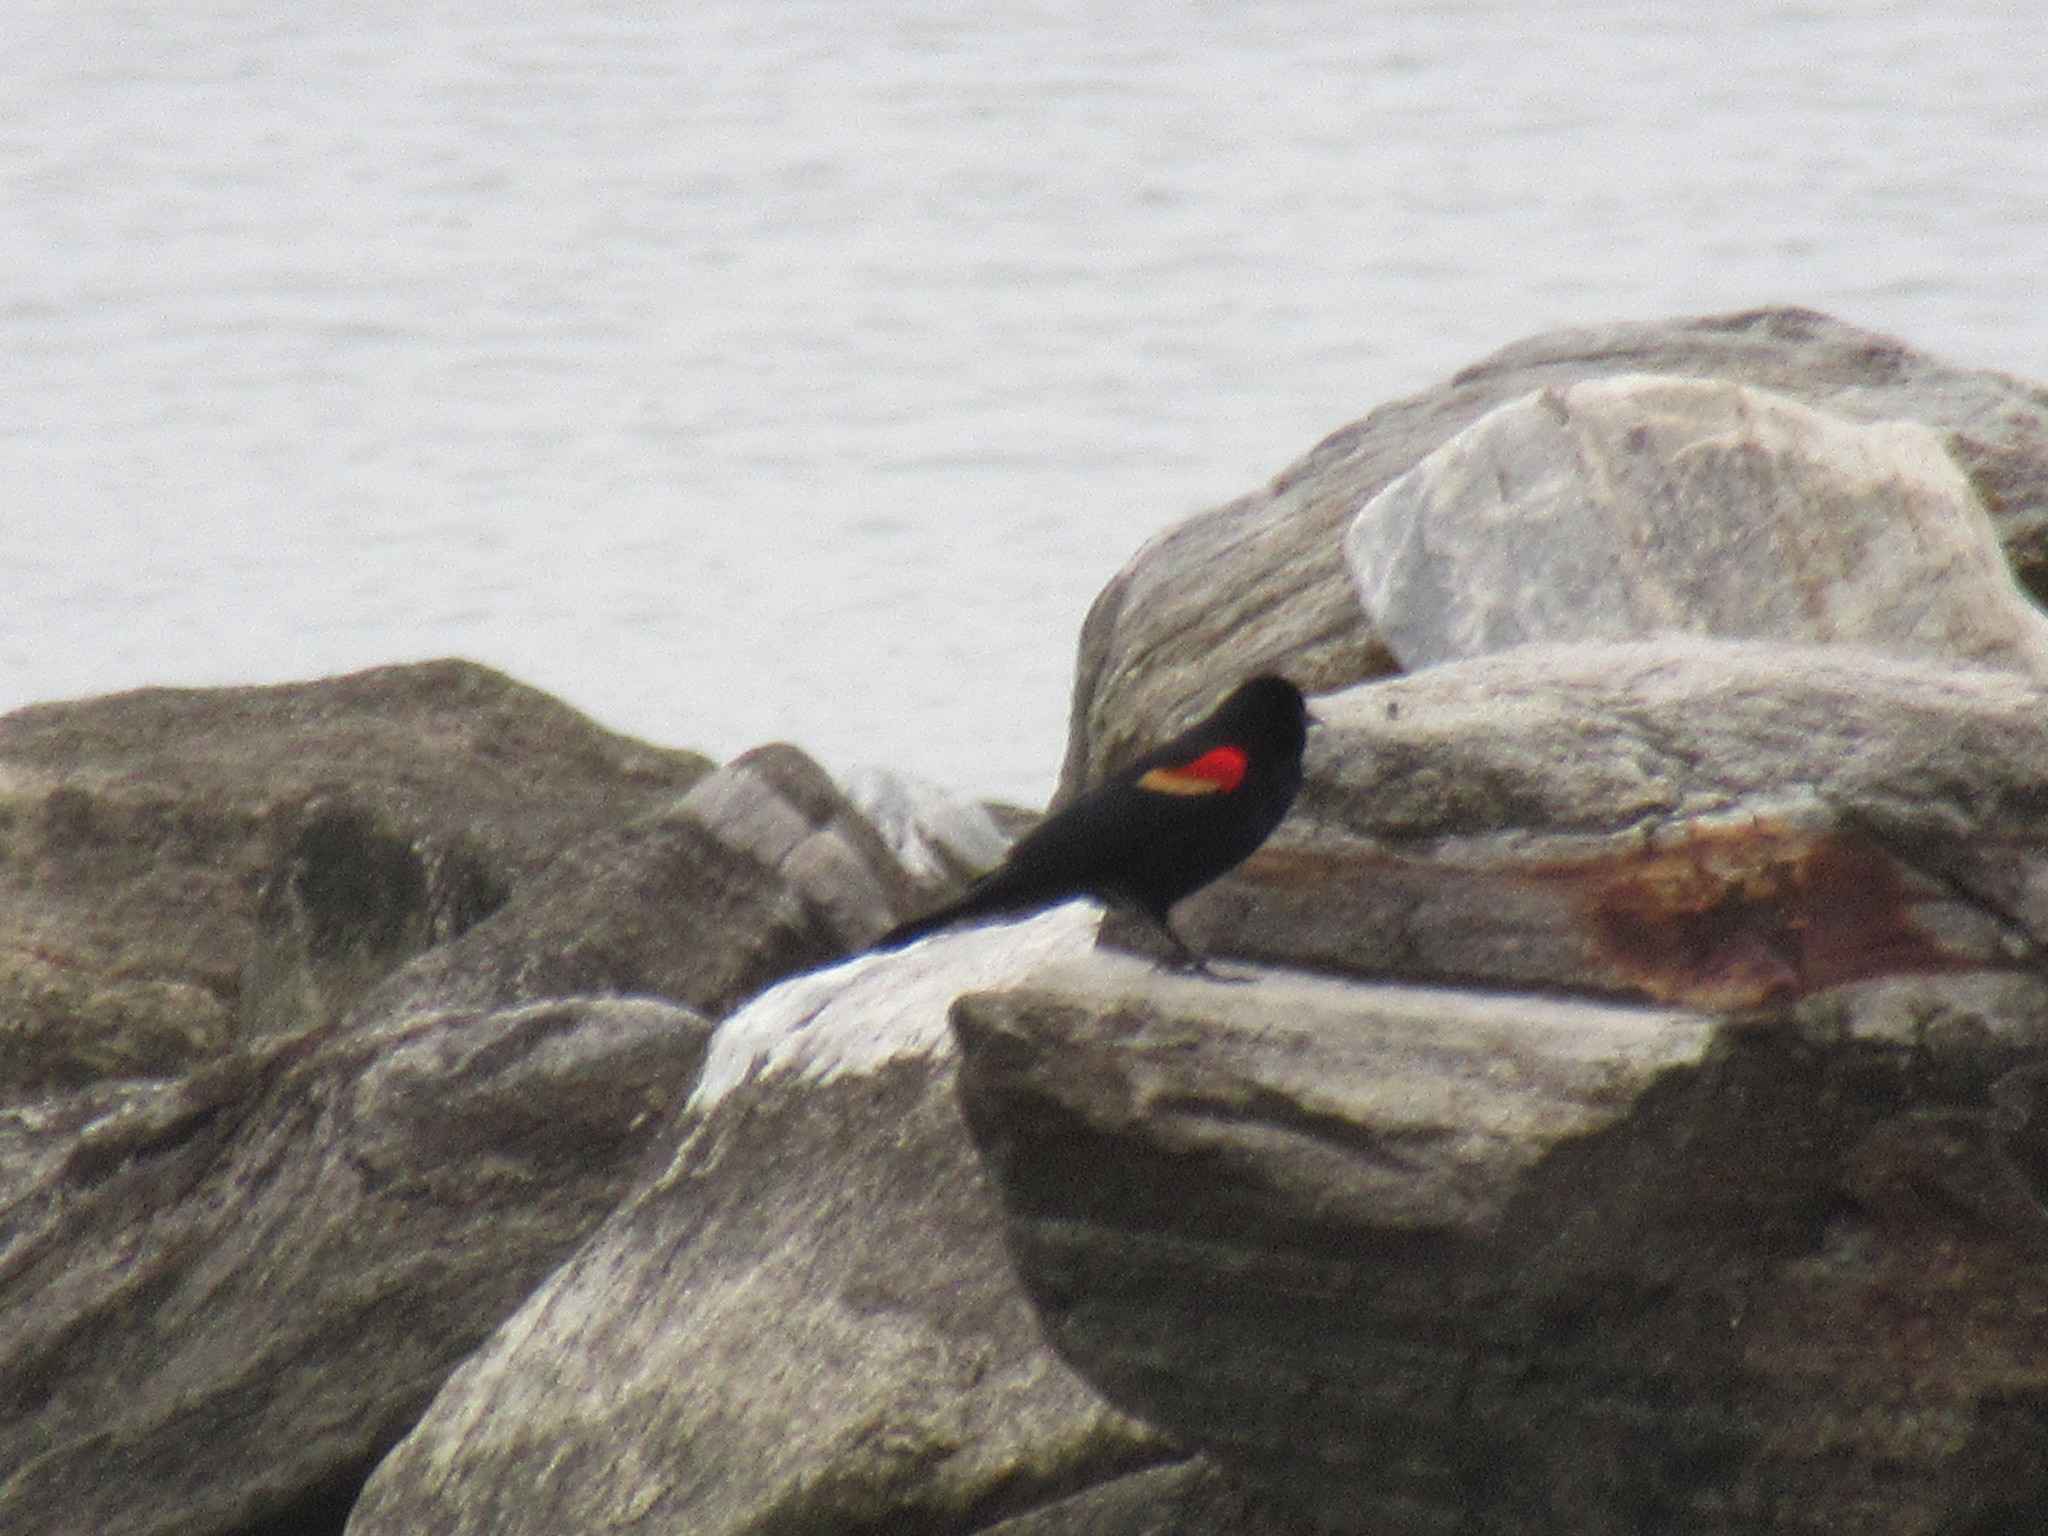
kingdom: Animalia
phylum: Chordata
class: Aves
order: Passeriformes
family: Icteridae
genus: Agelaius
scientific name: Agelaius phoeniceus
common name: Red-winged blackbird
